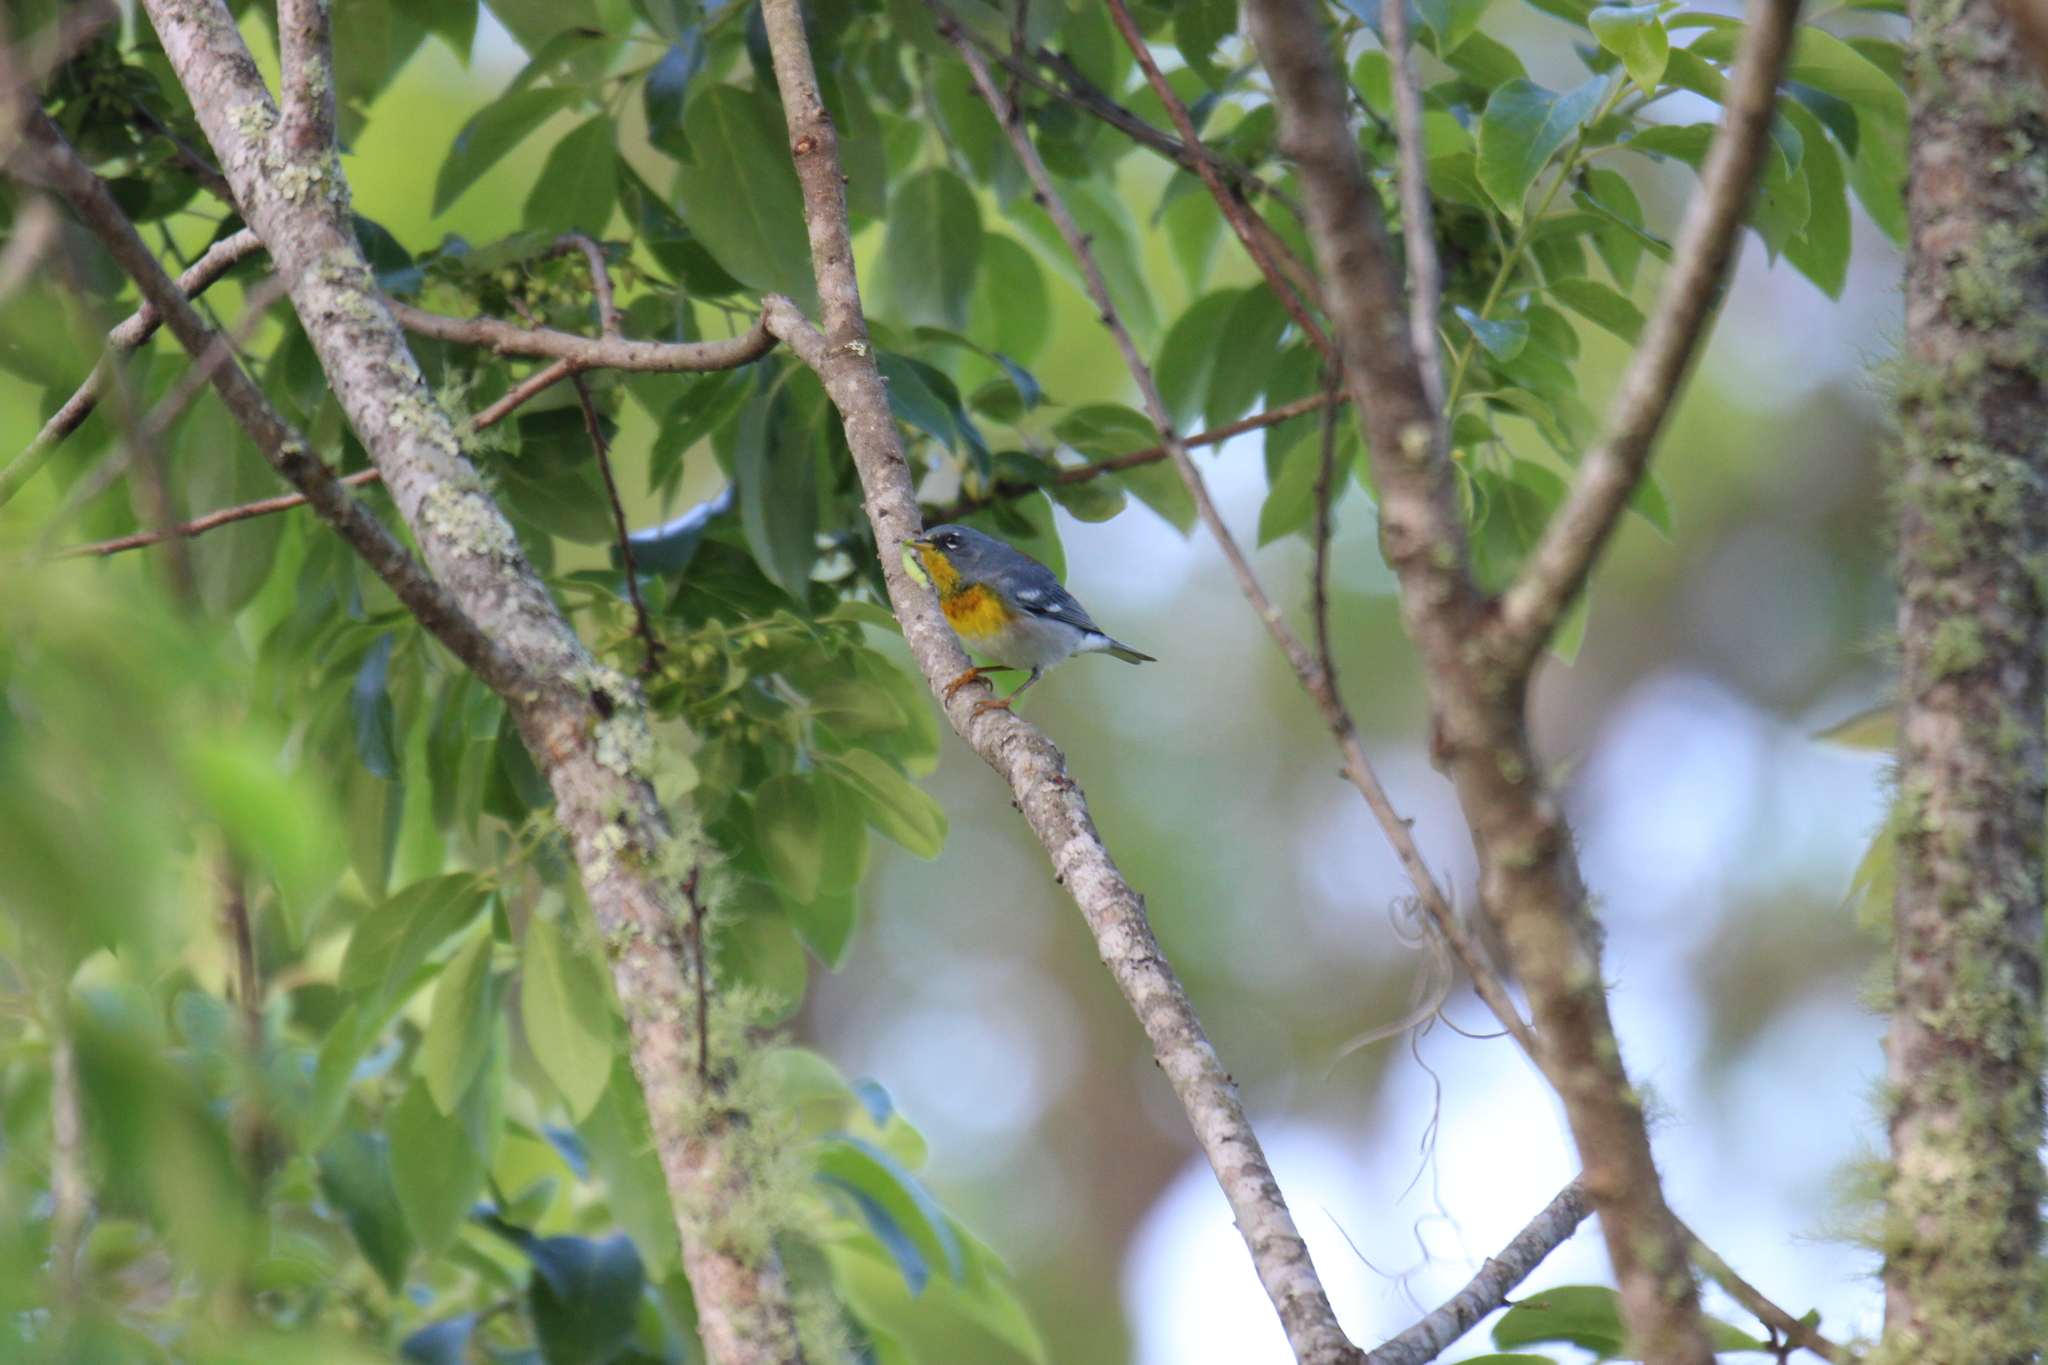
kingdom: Animalia
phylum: Chordata
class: Aves
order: Passeriformes
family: Parulidae
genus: Setophaga
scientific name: Setophaga americana
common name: Northern parula
